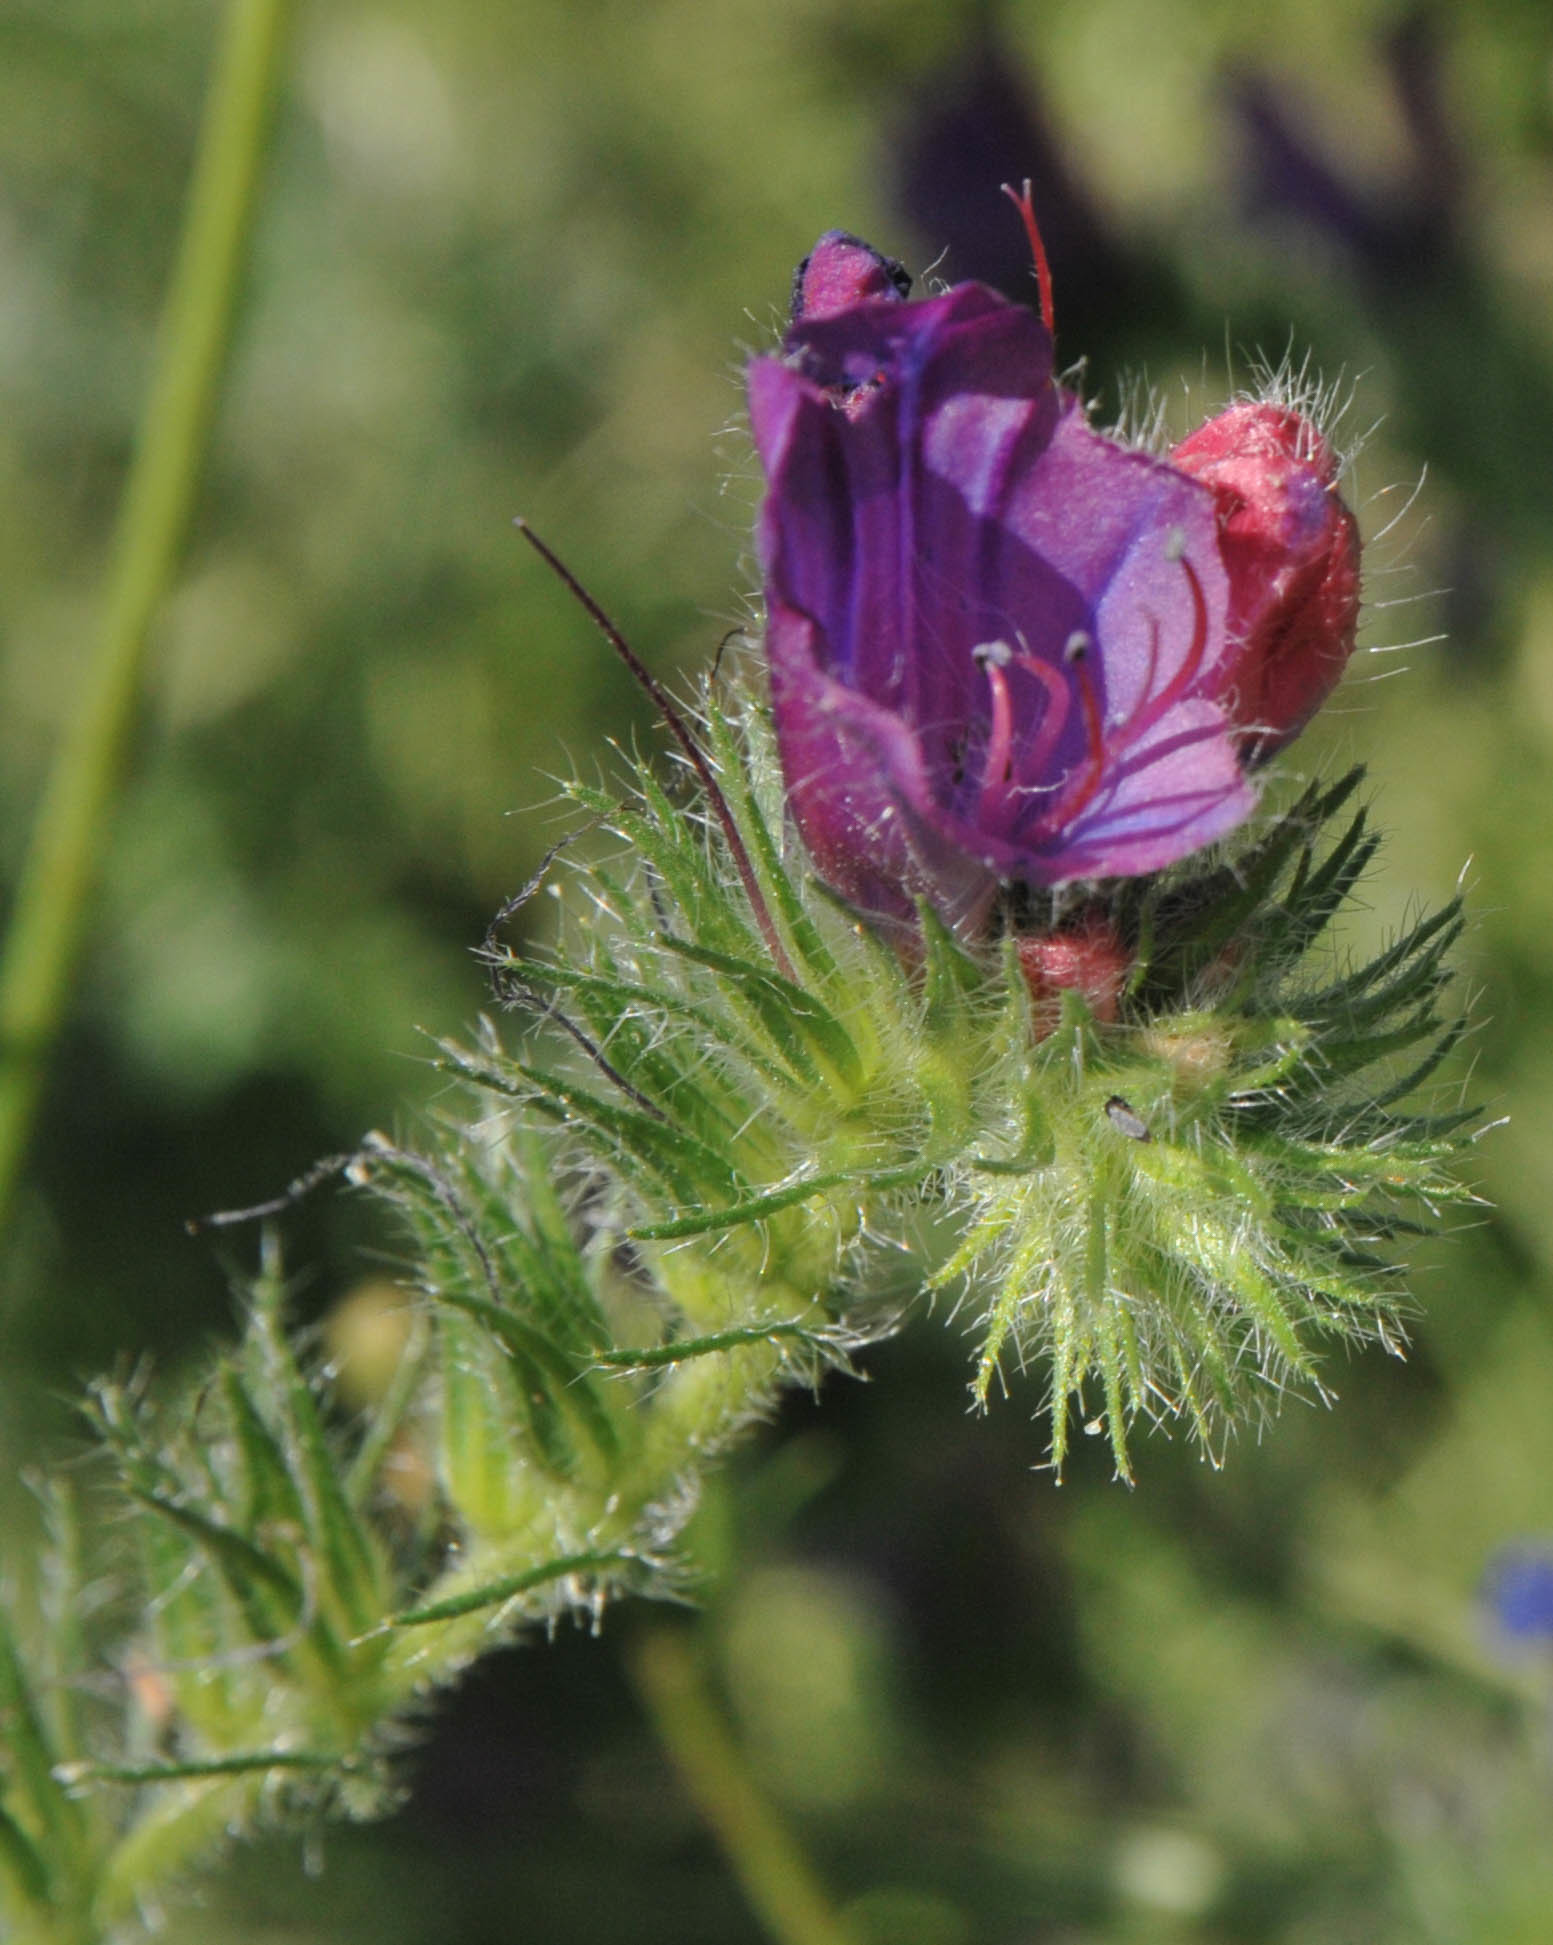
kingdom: Plantae
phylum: Tracheophyta
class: Magnoliopsida
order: Boraginales
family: Boraginaceae
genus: Echium
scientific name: Echium plantagineum
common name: Purple viper's-bugloss
